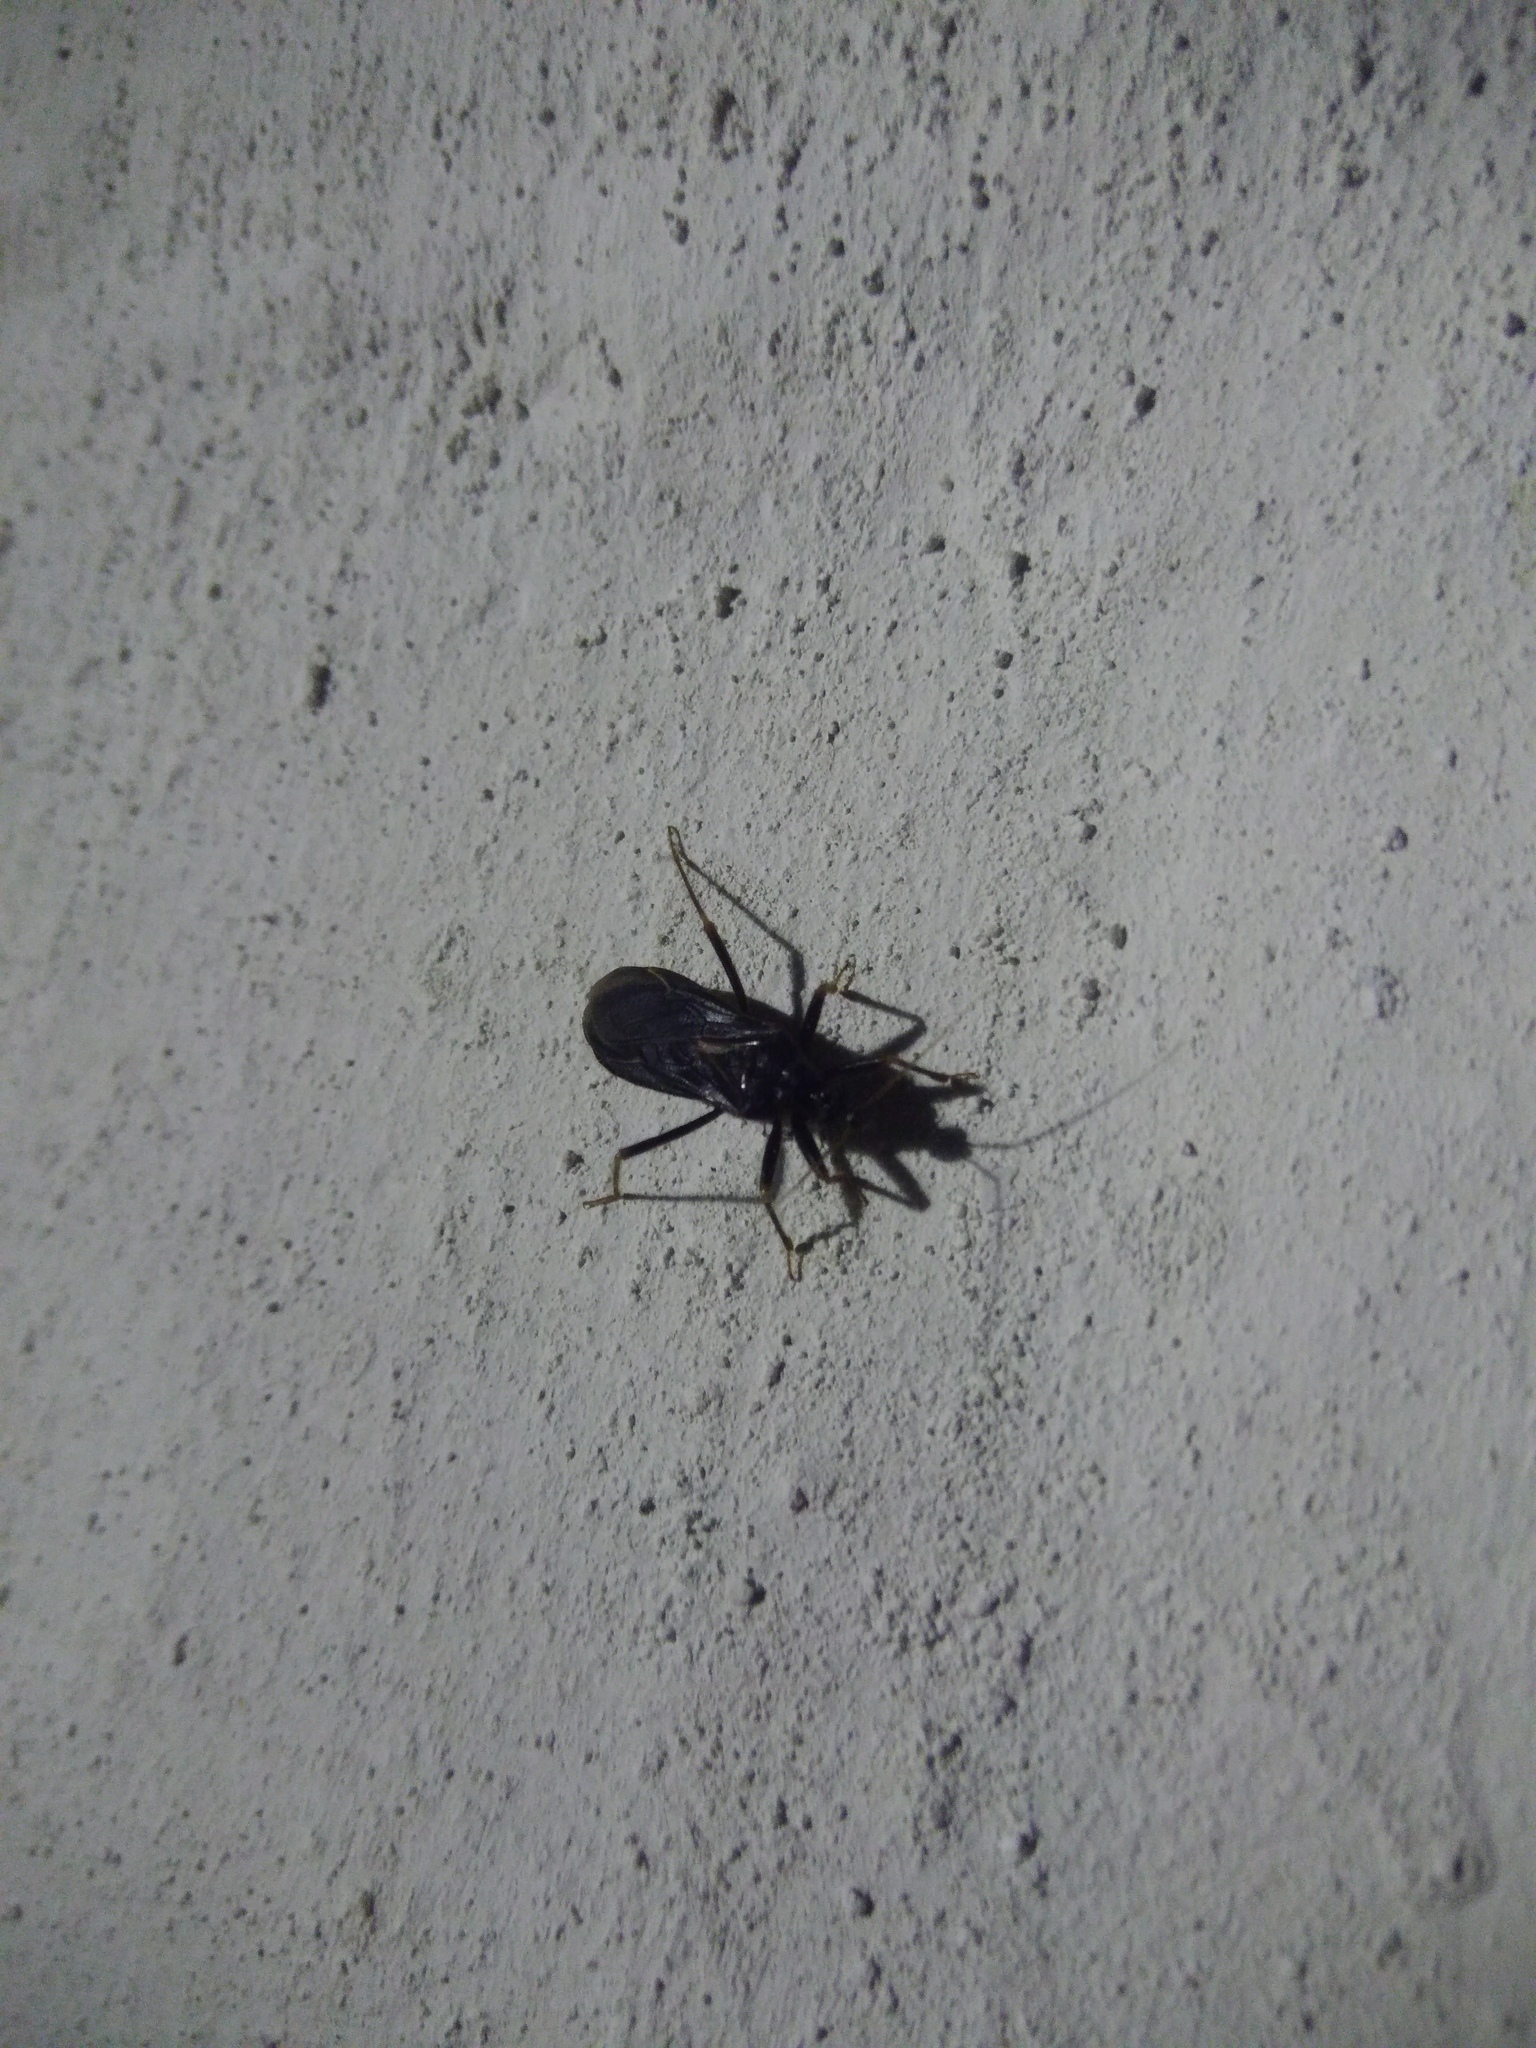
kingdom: Animalia
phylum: Arthropoda
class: Insecta
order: Hemiptera
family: Reduviidae
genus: Reduvius
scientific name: Reduvius personatus
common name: Masked hunter
